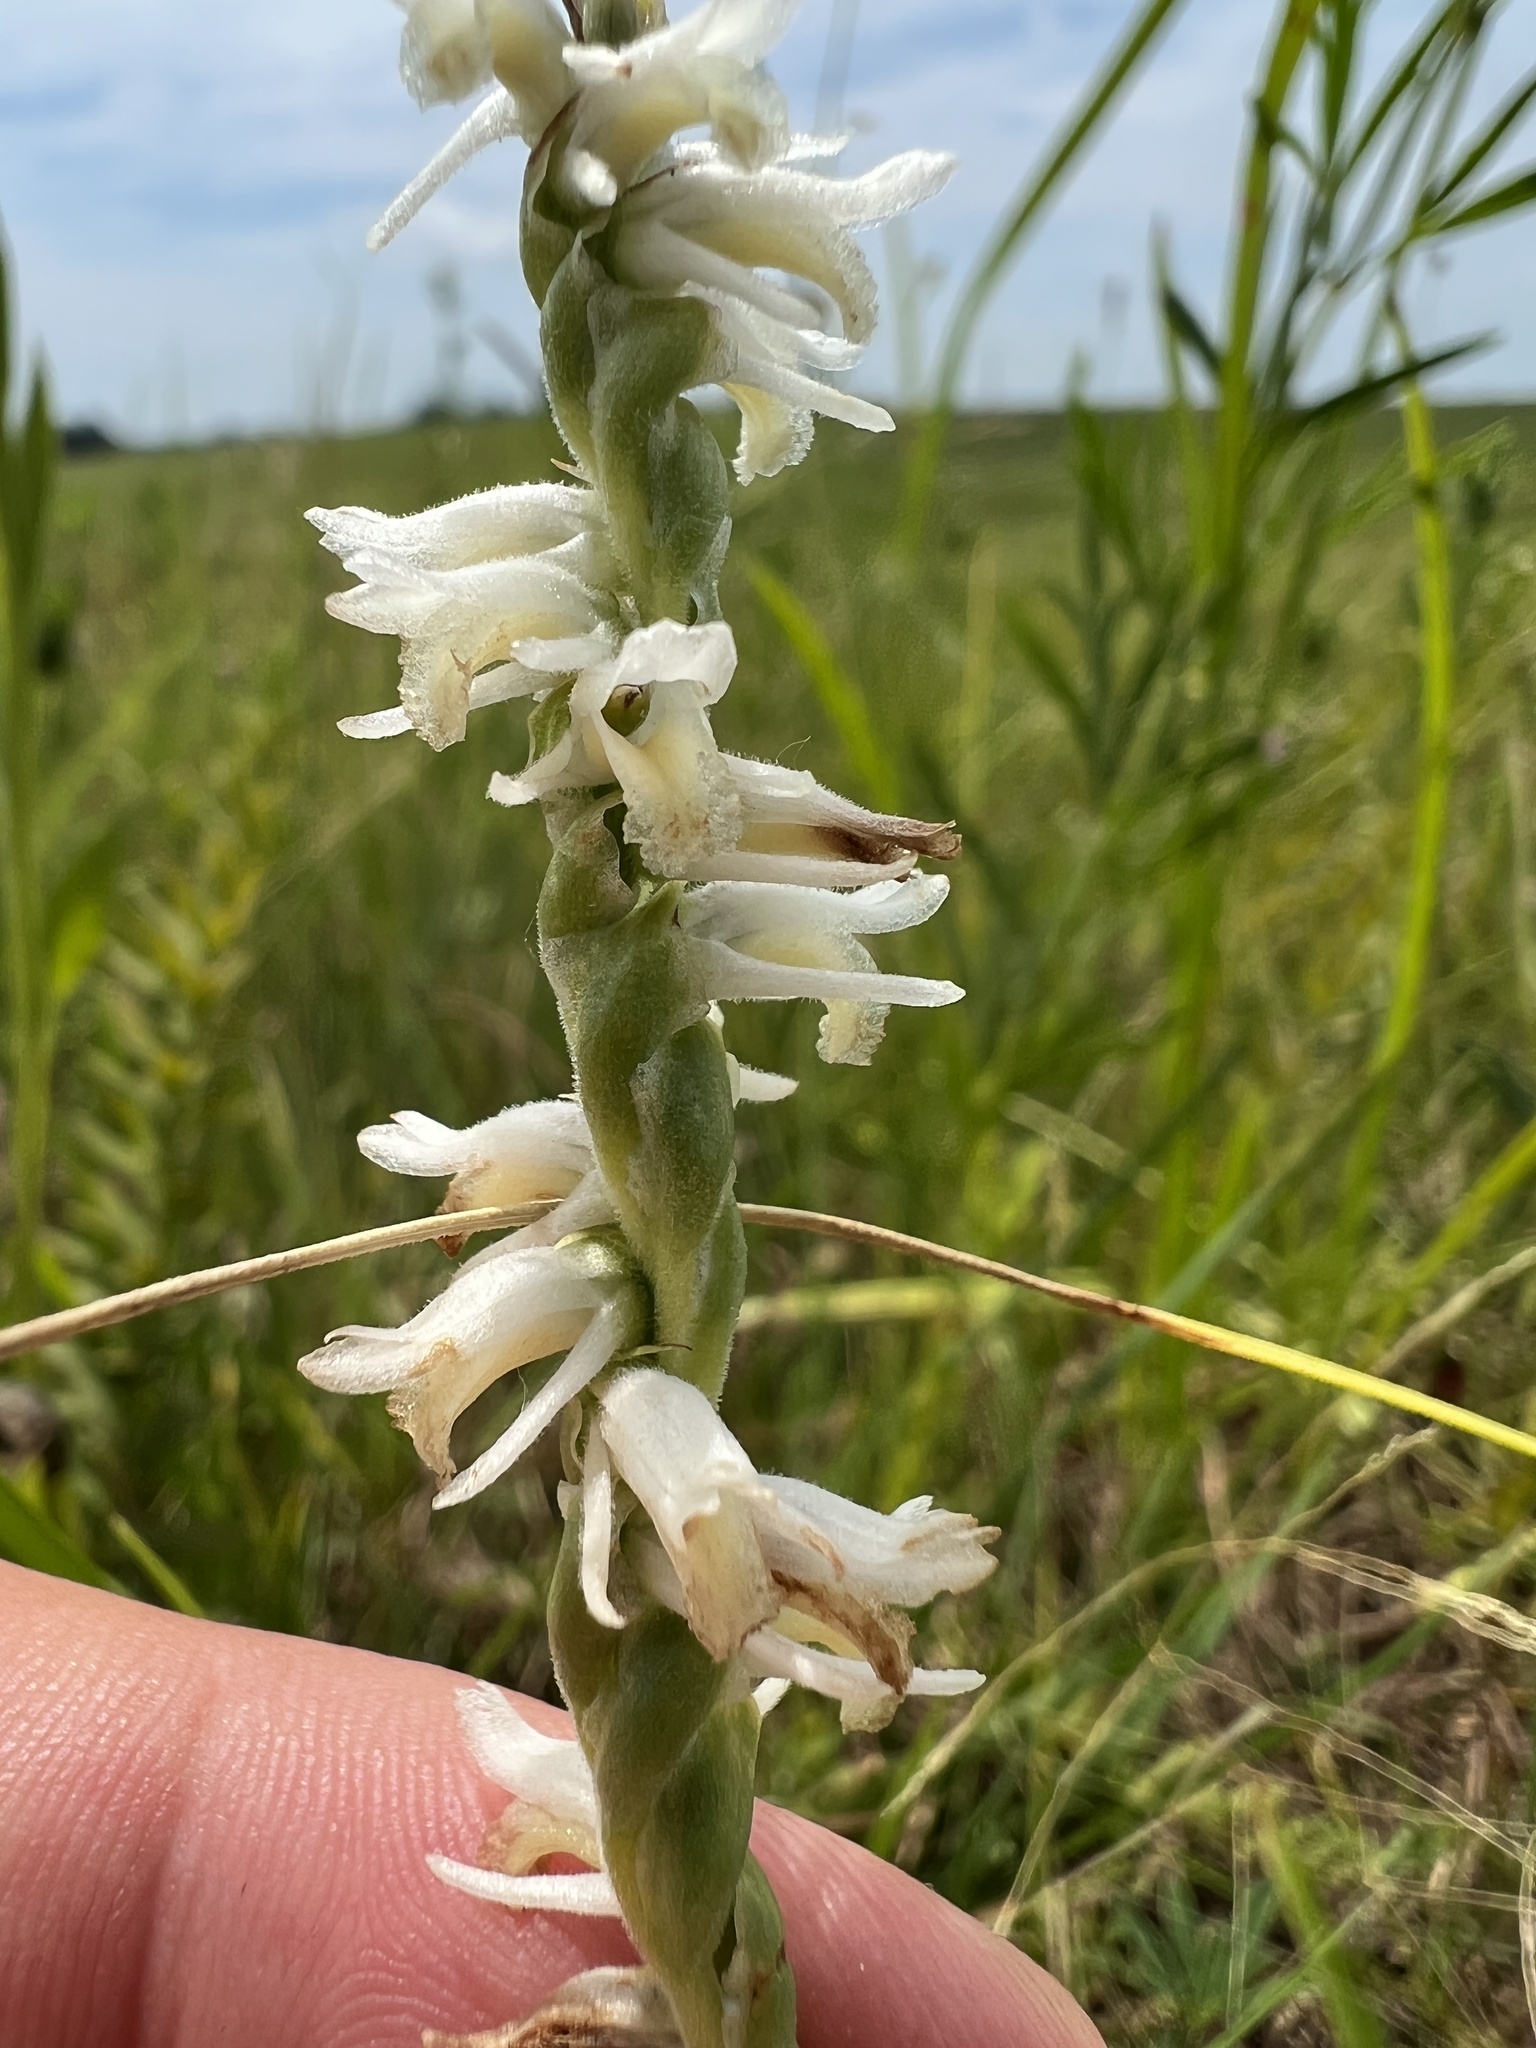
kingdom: Plantae
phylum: Tracheophyta
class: Liliopsida
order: Asparagales
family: Orchidaceae
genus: Spiranthes
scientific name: Spiranthes vernalis
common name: Spring ladies'-tresses
